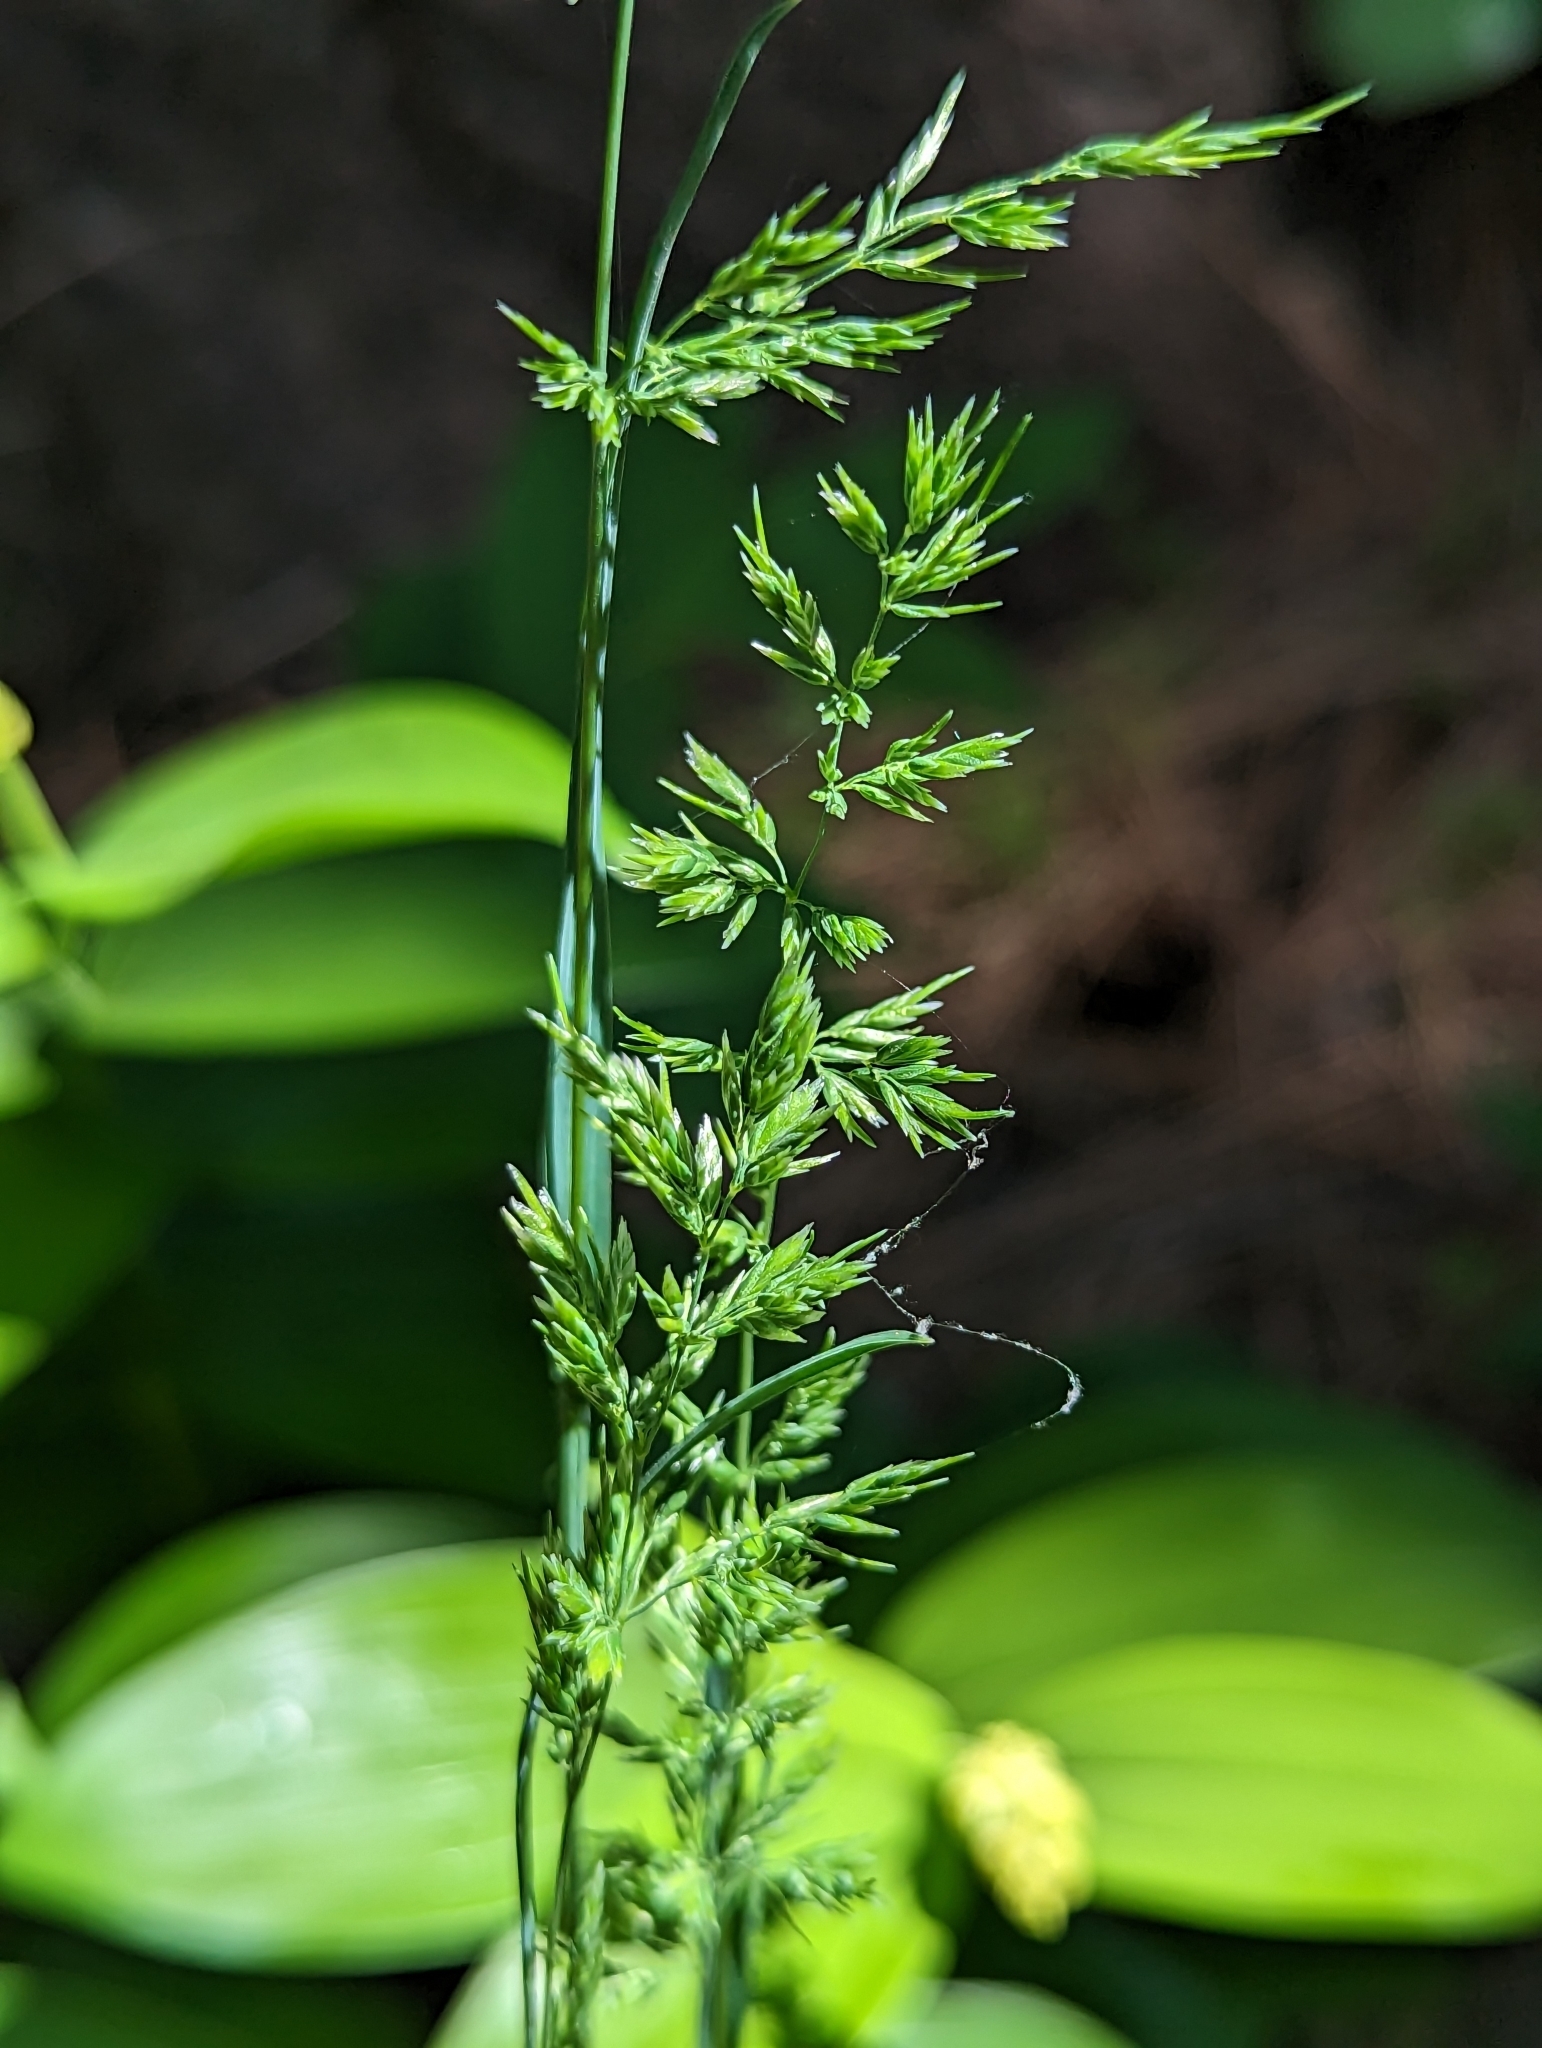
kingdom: Plantae
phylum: Tracheophyta
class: Liliopsida
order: Poales
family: Poaceae
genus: Poa
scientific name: Poa bulbosa
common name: Bulbous bluegrass
